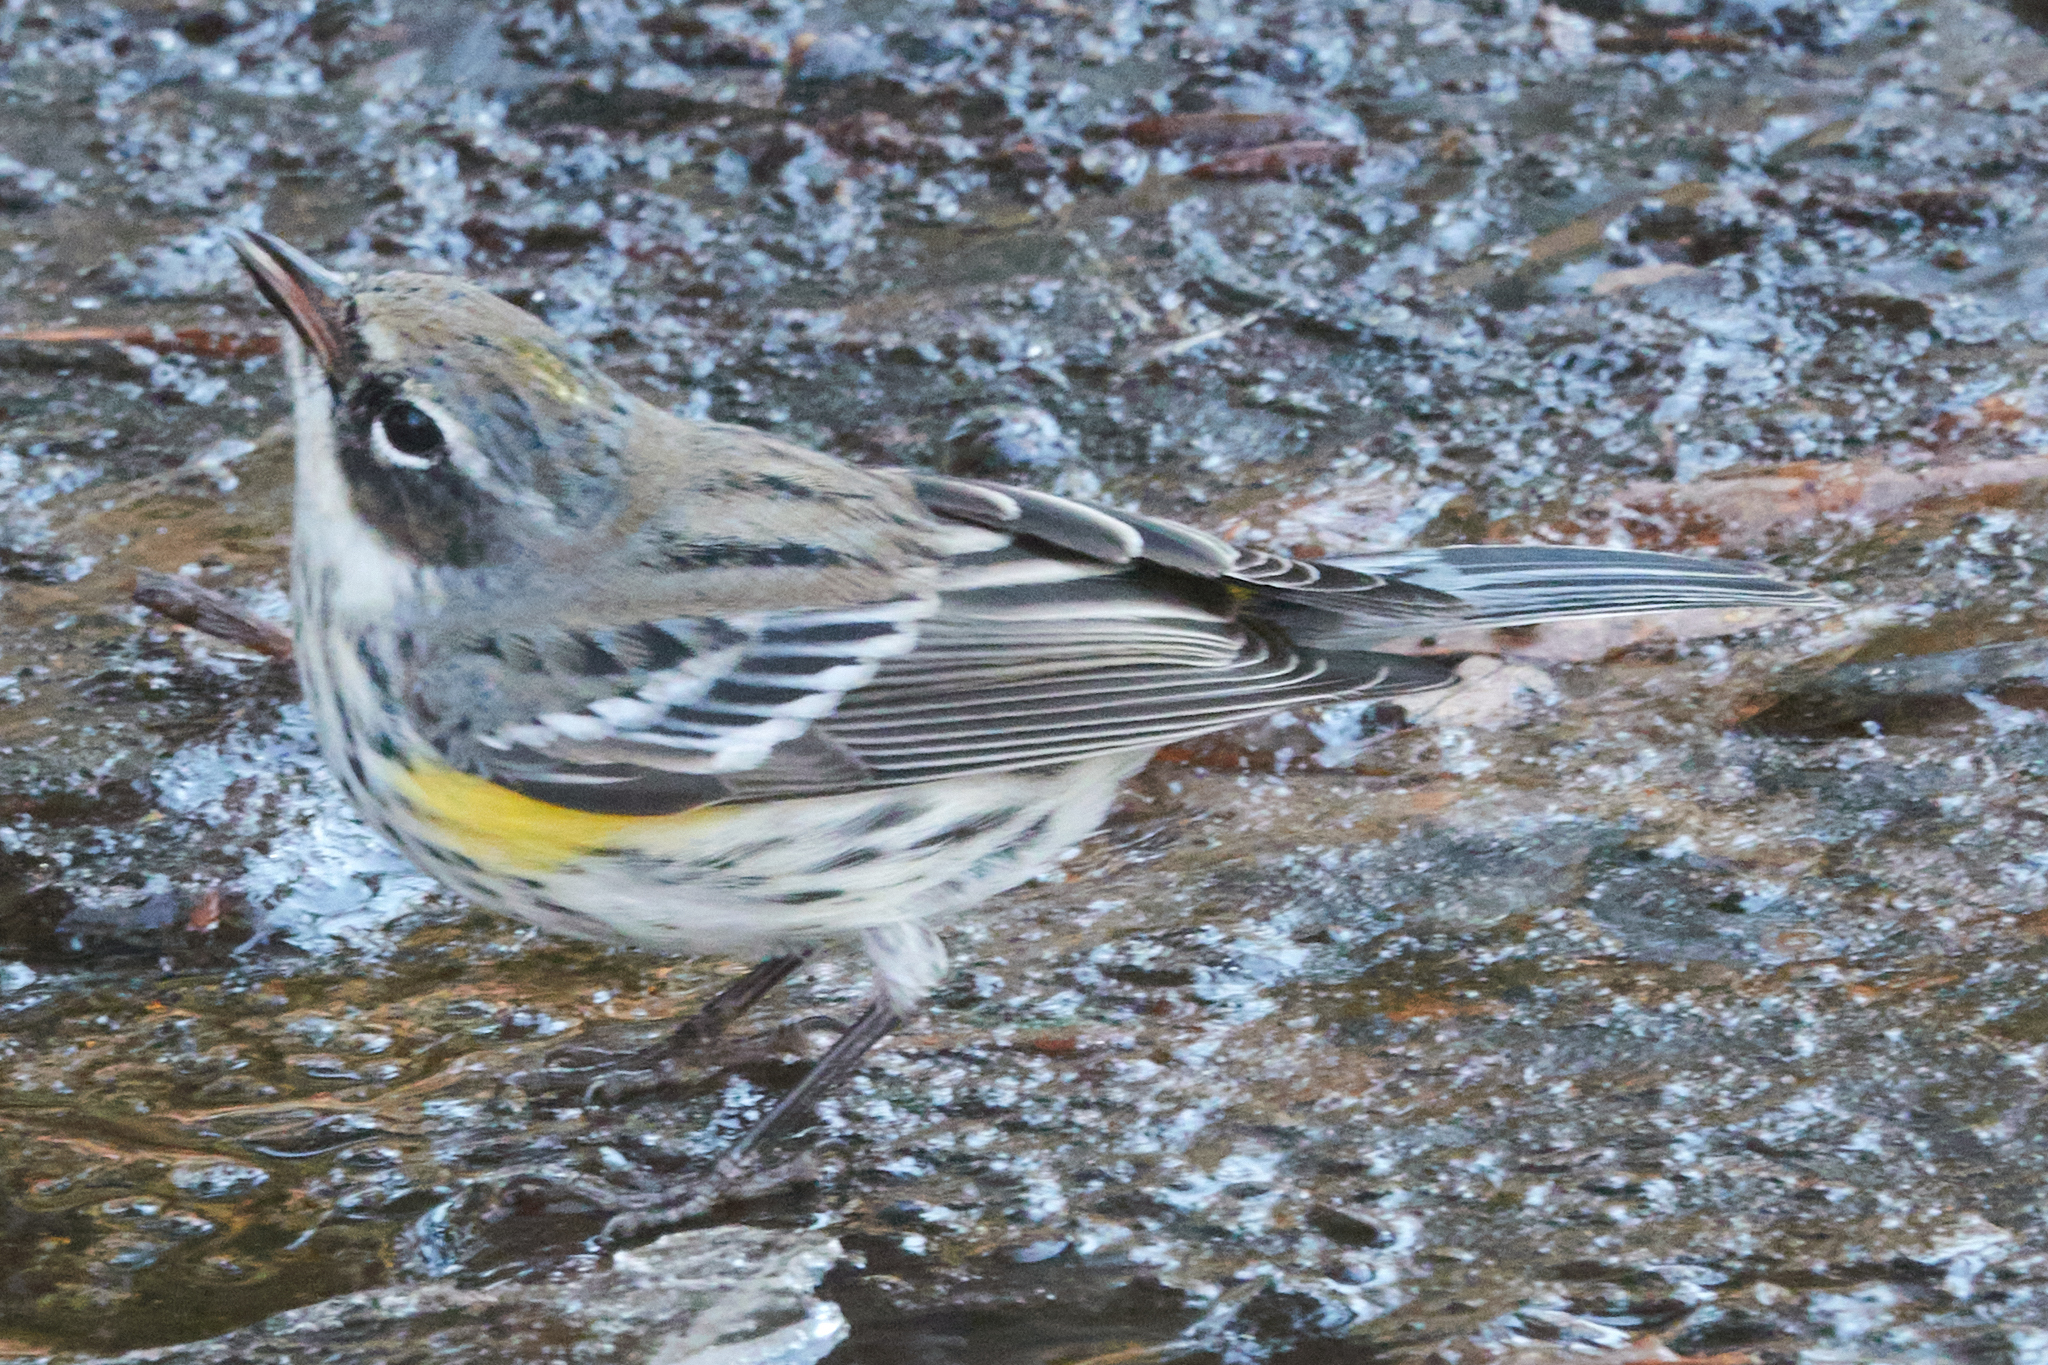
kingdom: Animalia
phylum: Chordata
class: Aves
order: Passeriformes
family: Parulidae
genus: Setophaga
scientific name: Setophaga coronata
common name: Myrtle warbler
